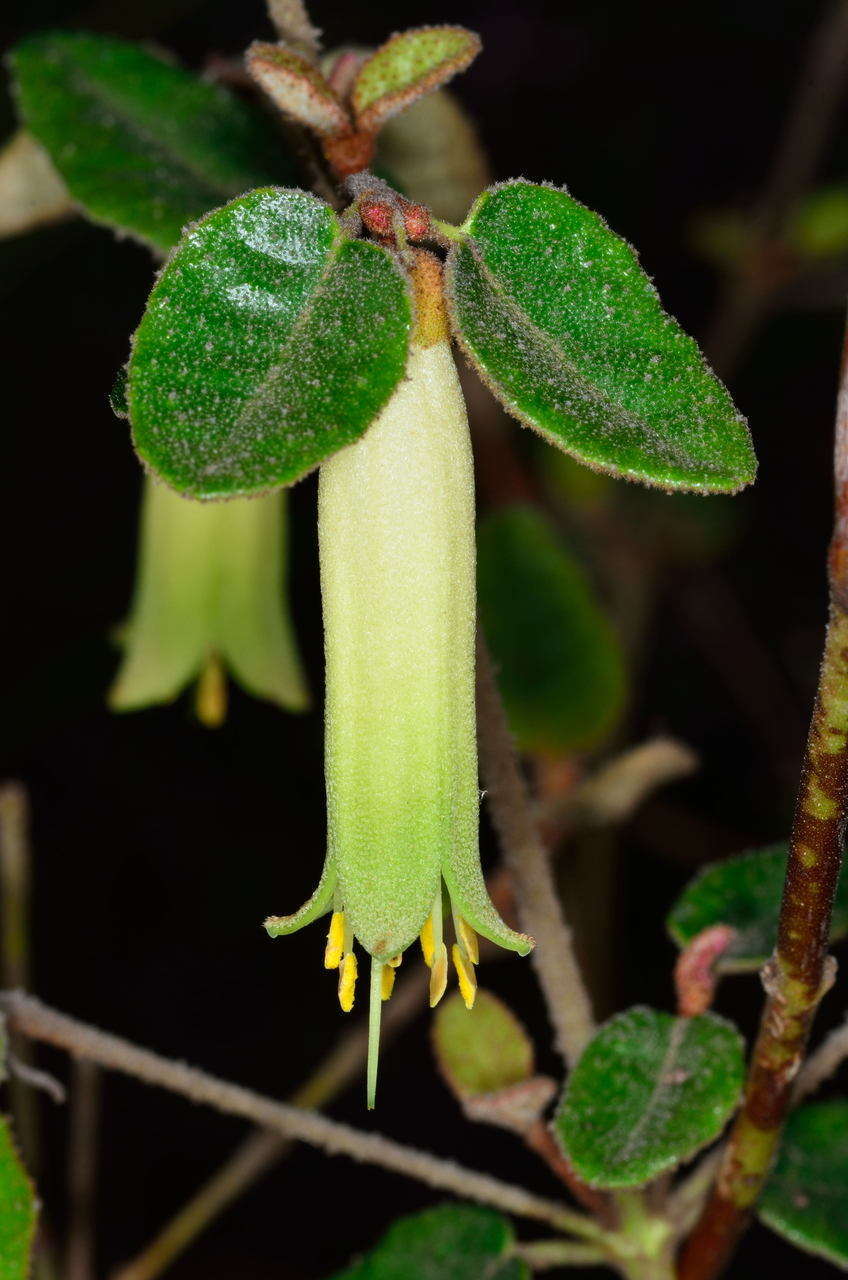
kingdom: Plantae
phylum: Tracheophyta
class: Magnoliopsida
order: Sapindales
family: Rutaceae
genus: Correa
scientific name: Correa reflexa
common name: Common correa
